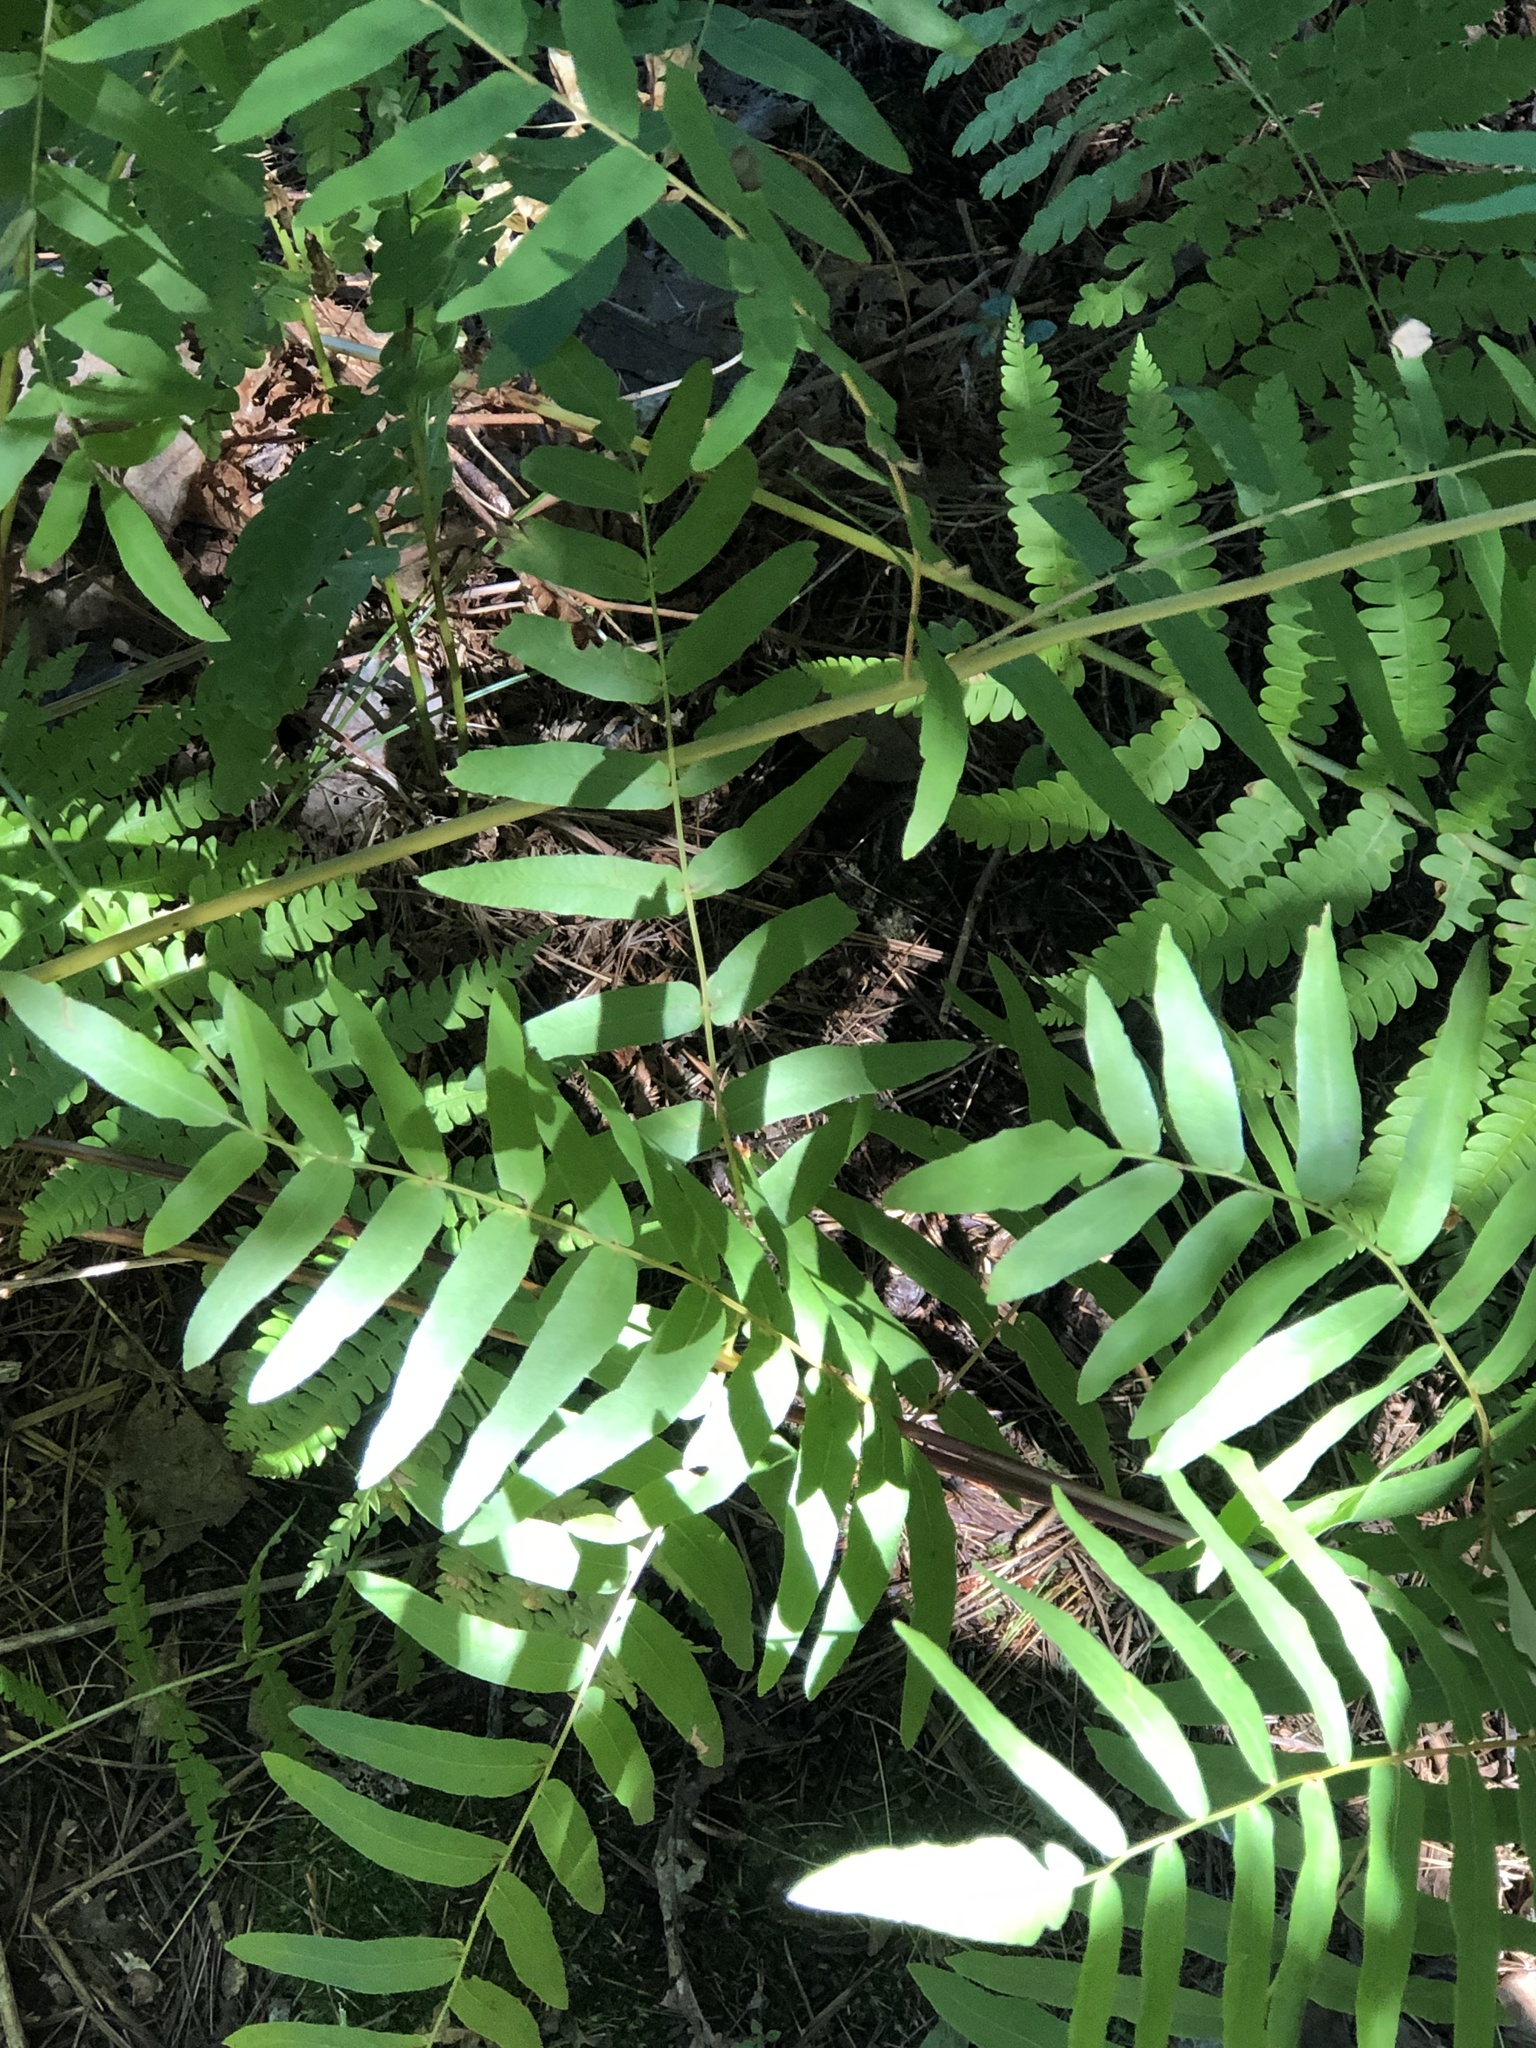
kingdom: Plantae
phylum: Tracheophyta
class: Polypodiopsida
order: Osmundales
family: Osmundaceae
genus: Osmunda
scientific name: Osmunda spectabilis
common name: American royal fern
